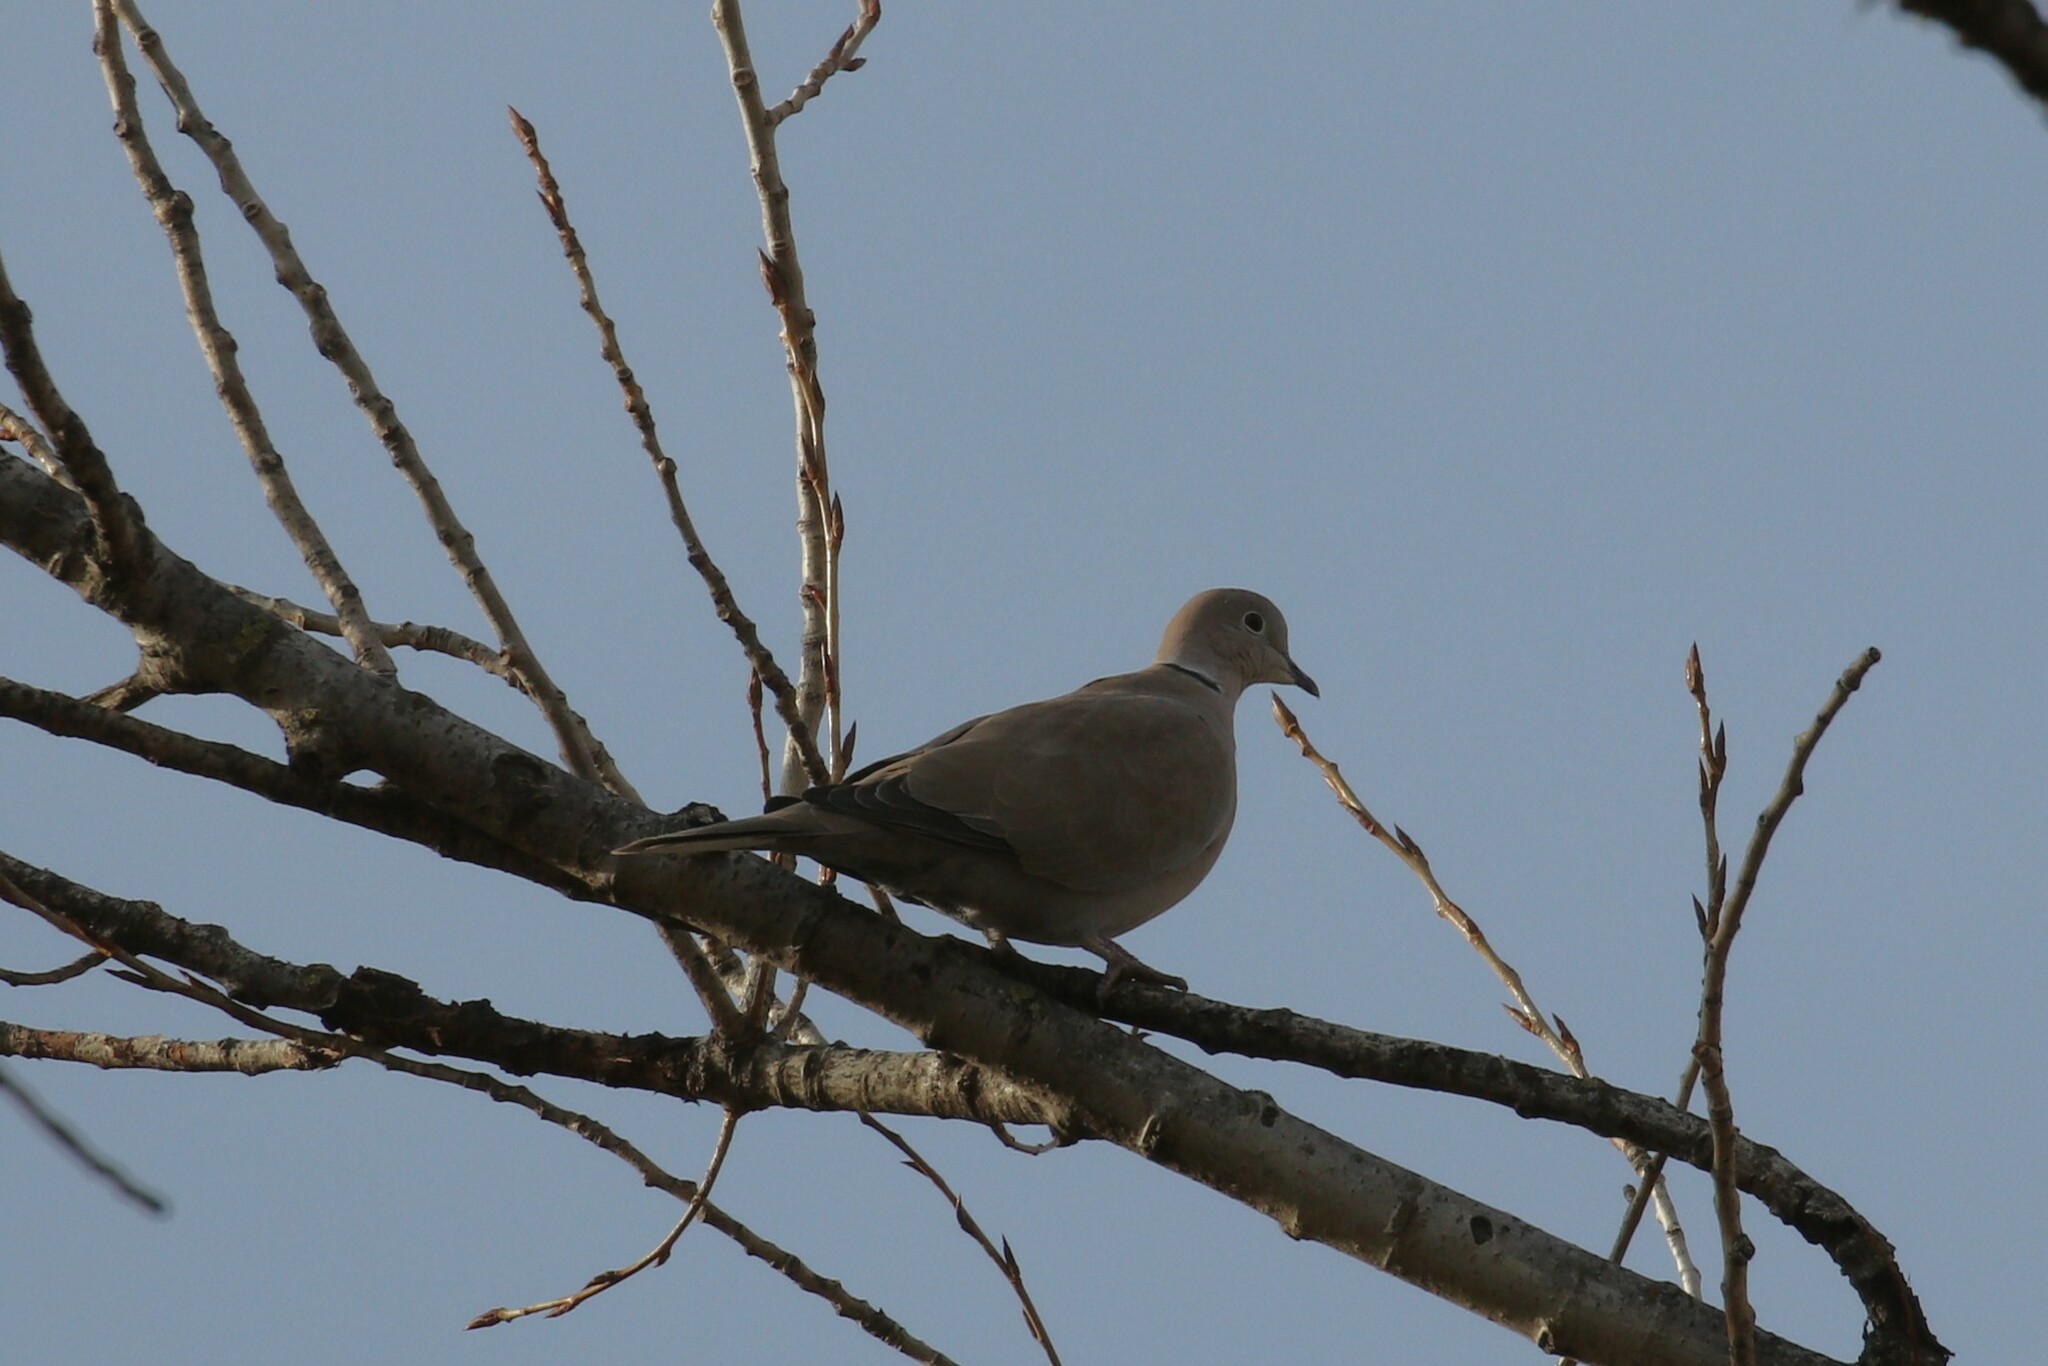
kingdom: Animalia
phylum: Chordata
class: Aves
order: Columbiformes
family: Columbidae
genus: Streptopelia
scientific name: Streptopelia decaocto
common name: Eurasian collared dove
